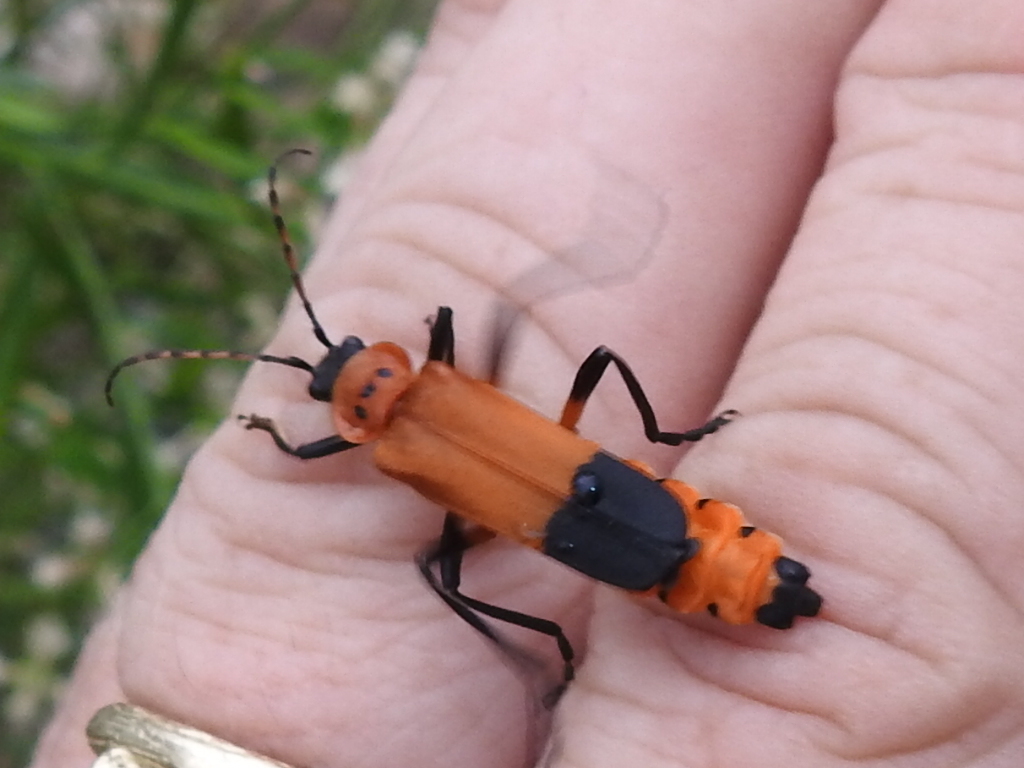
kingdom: Animalia
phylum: Arthropoda
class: Insecta
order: Coleoptera
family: Cantharidae
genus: Chauliognathus
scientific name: Chauliognathus profundus
